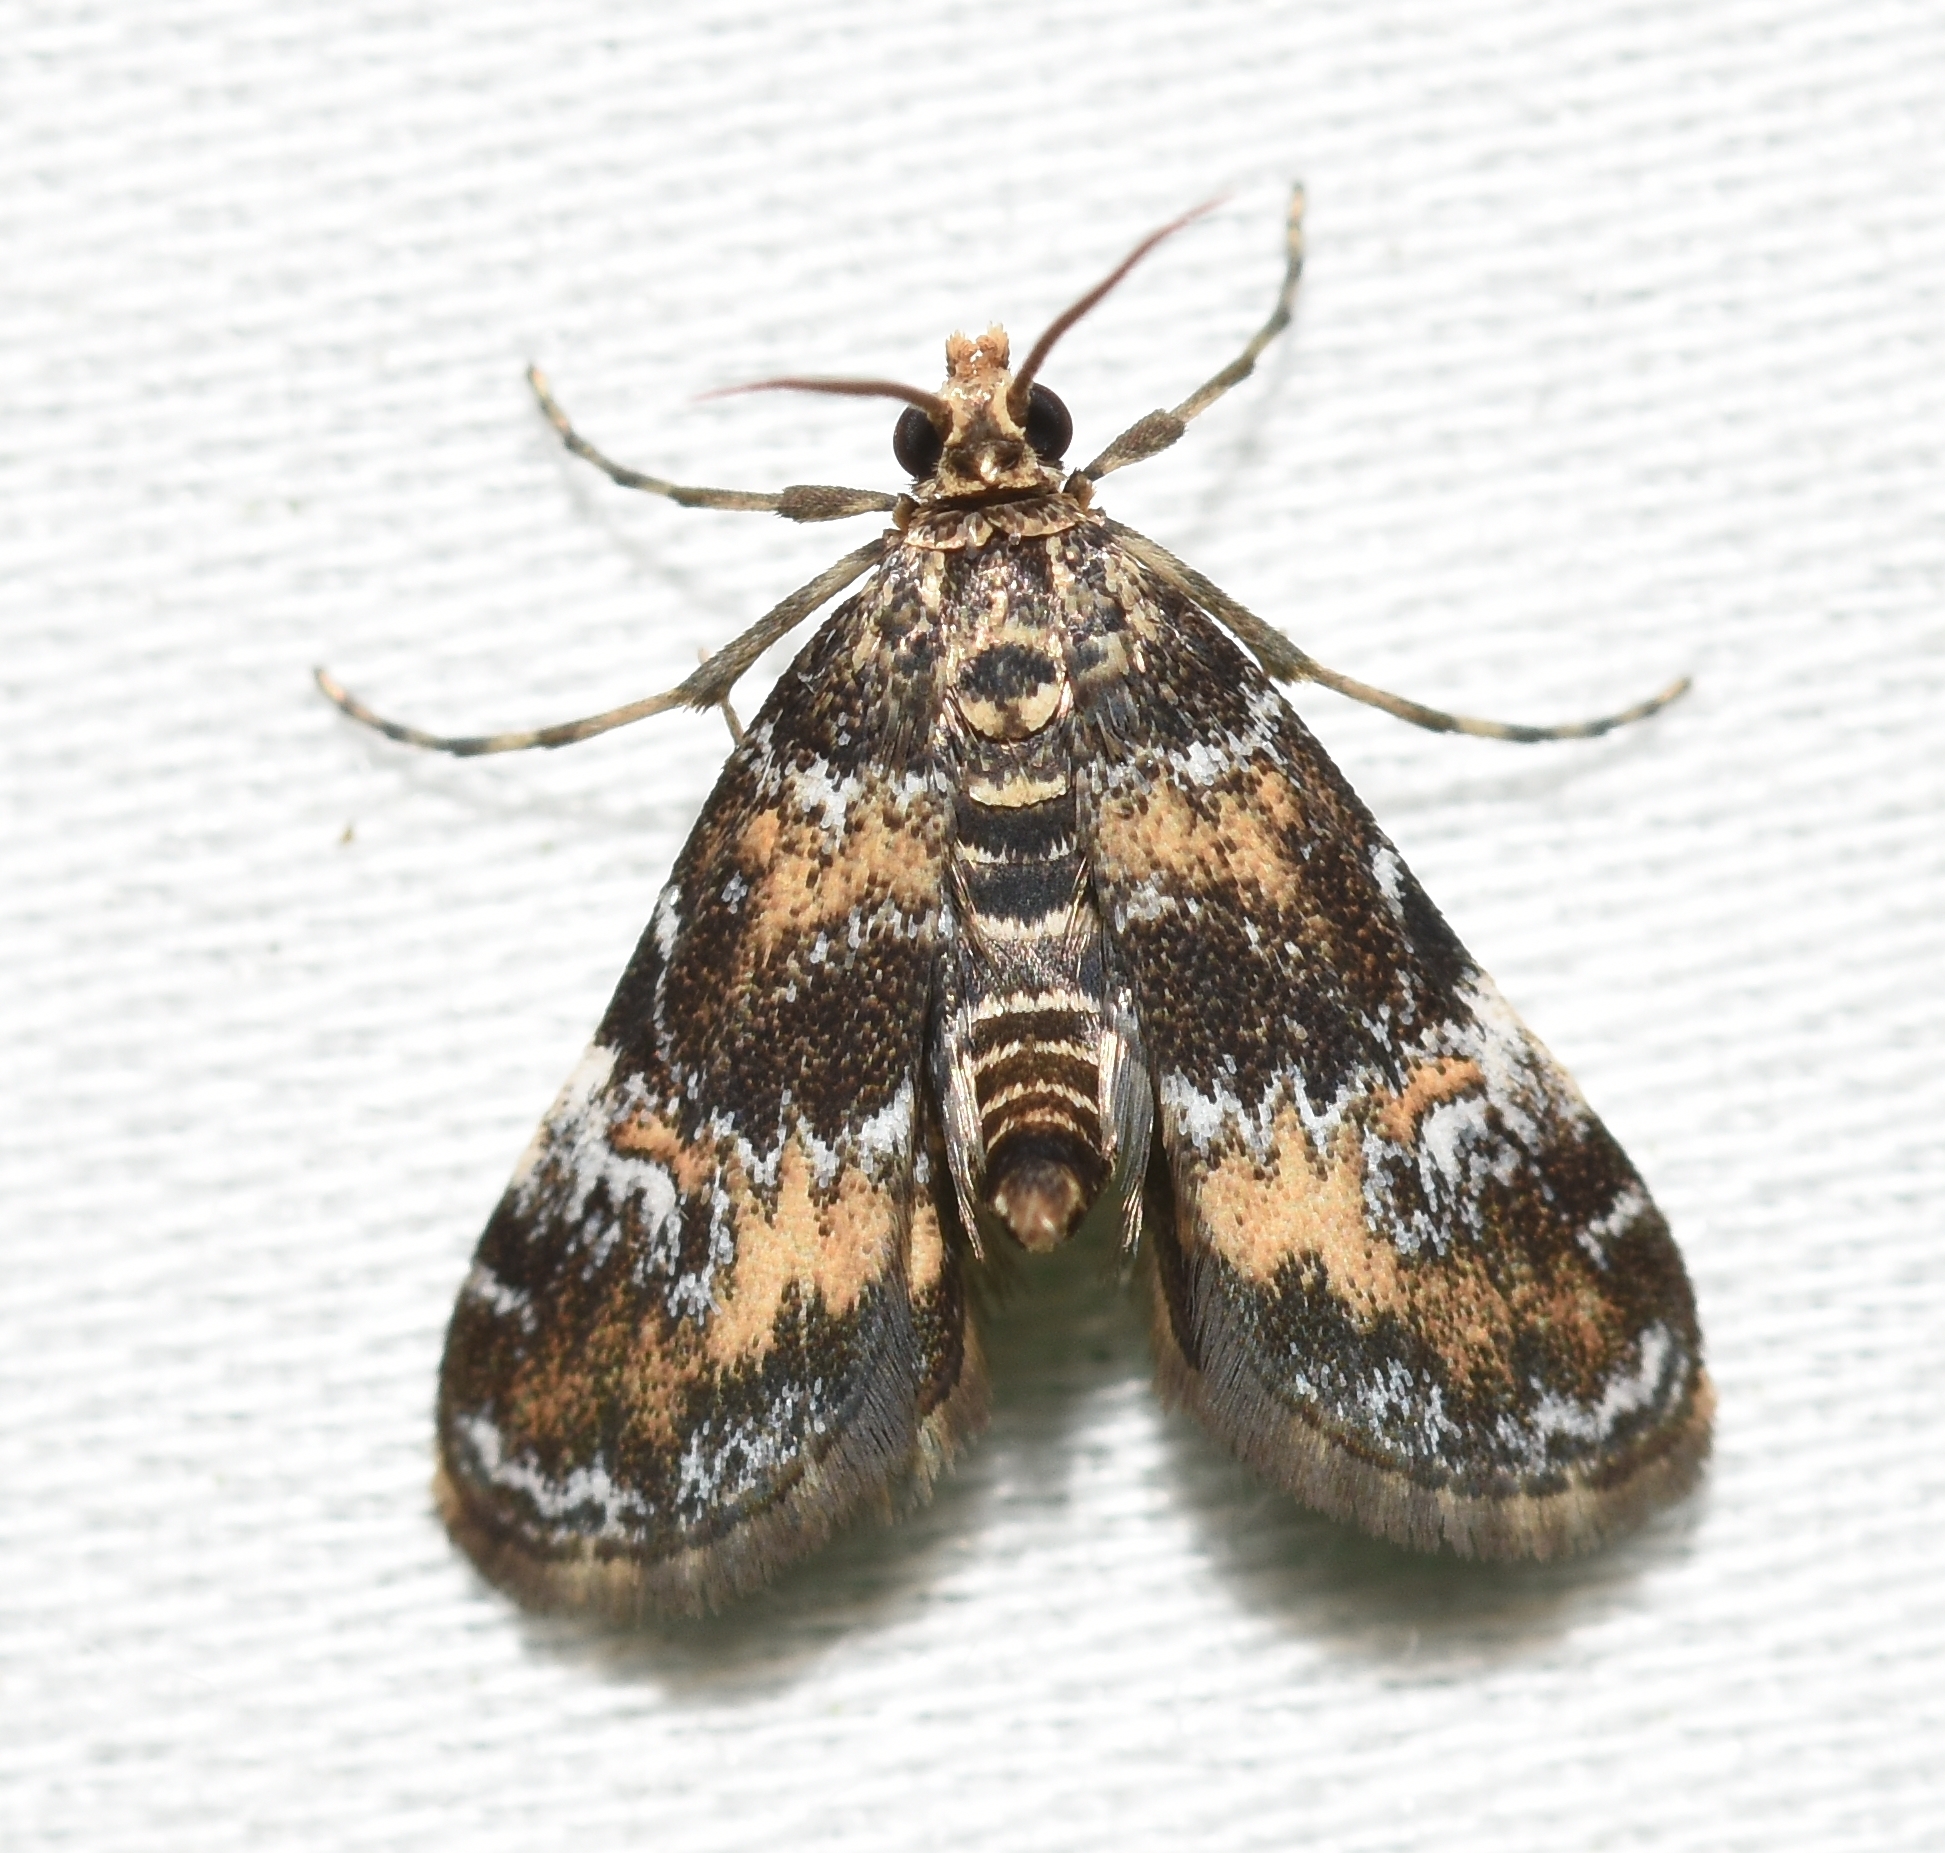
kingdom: Animalia
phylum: Arthropoda
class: Insecta
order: Lepidoptera
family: Crambidae
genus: Elophila
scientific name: Elophila obliteralis
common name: Waterlily leafcutter moth
